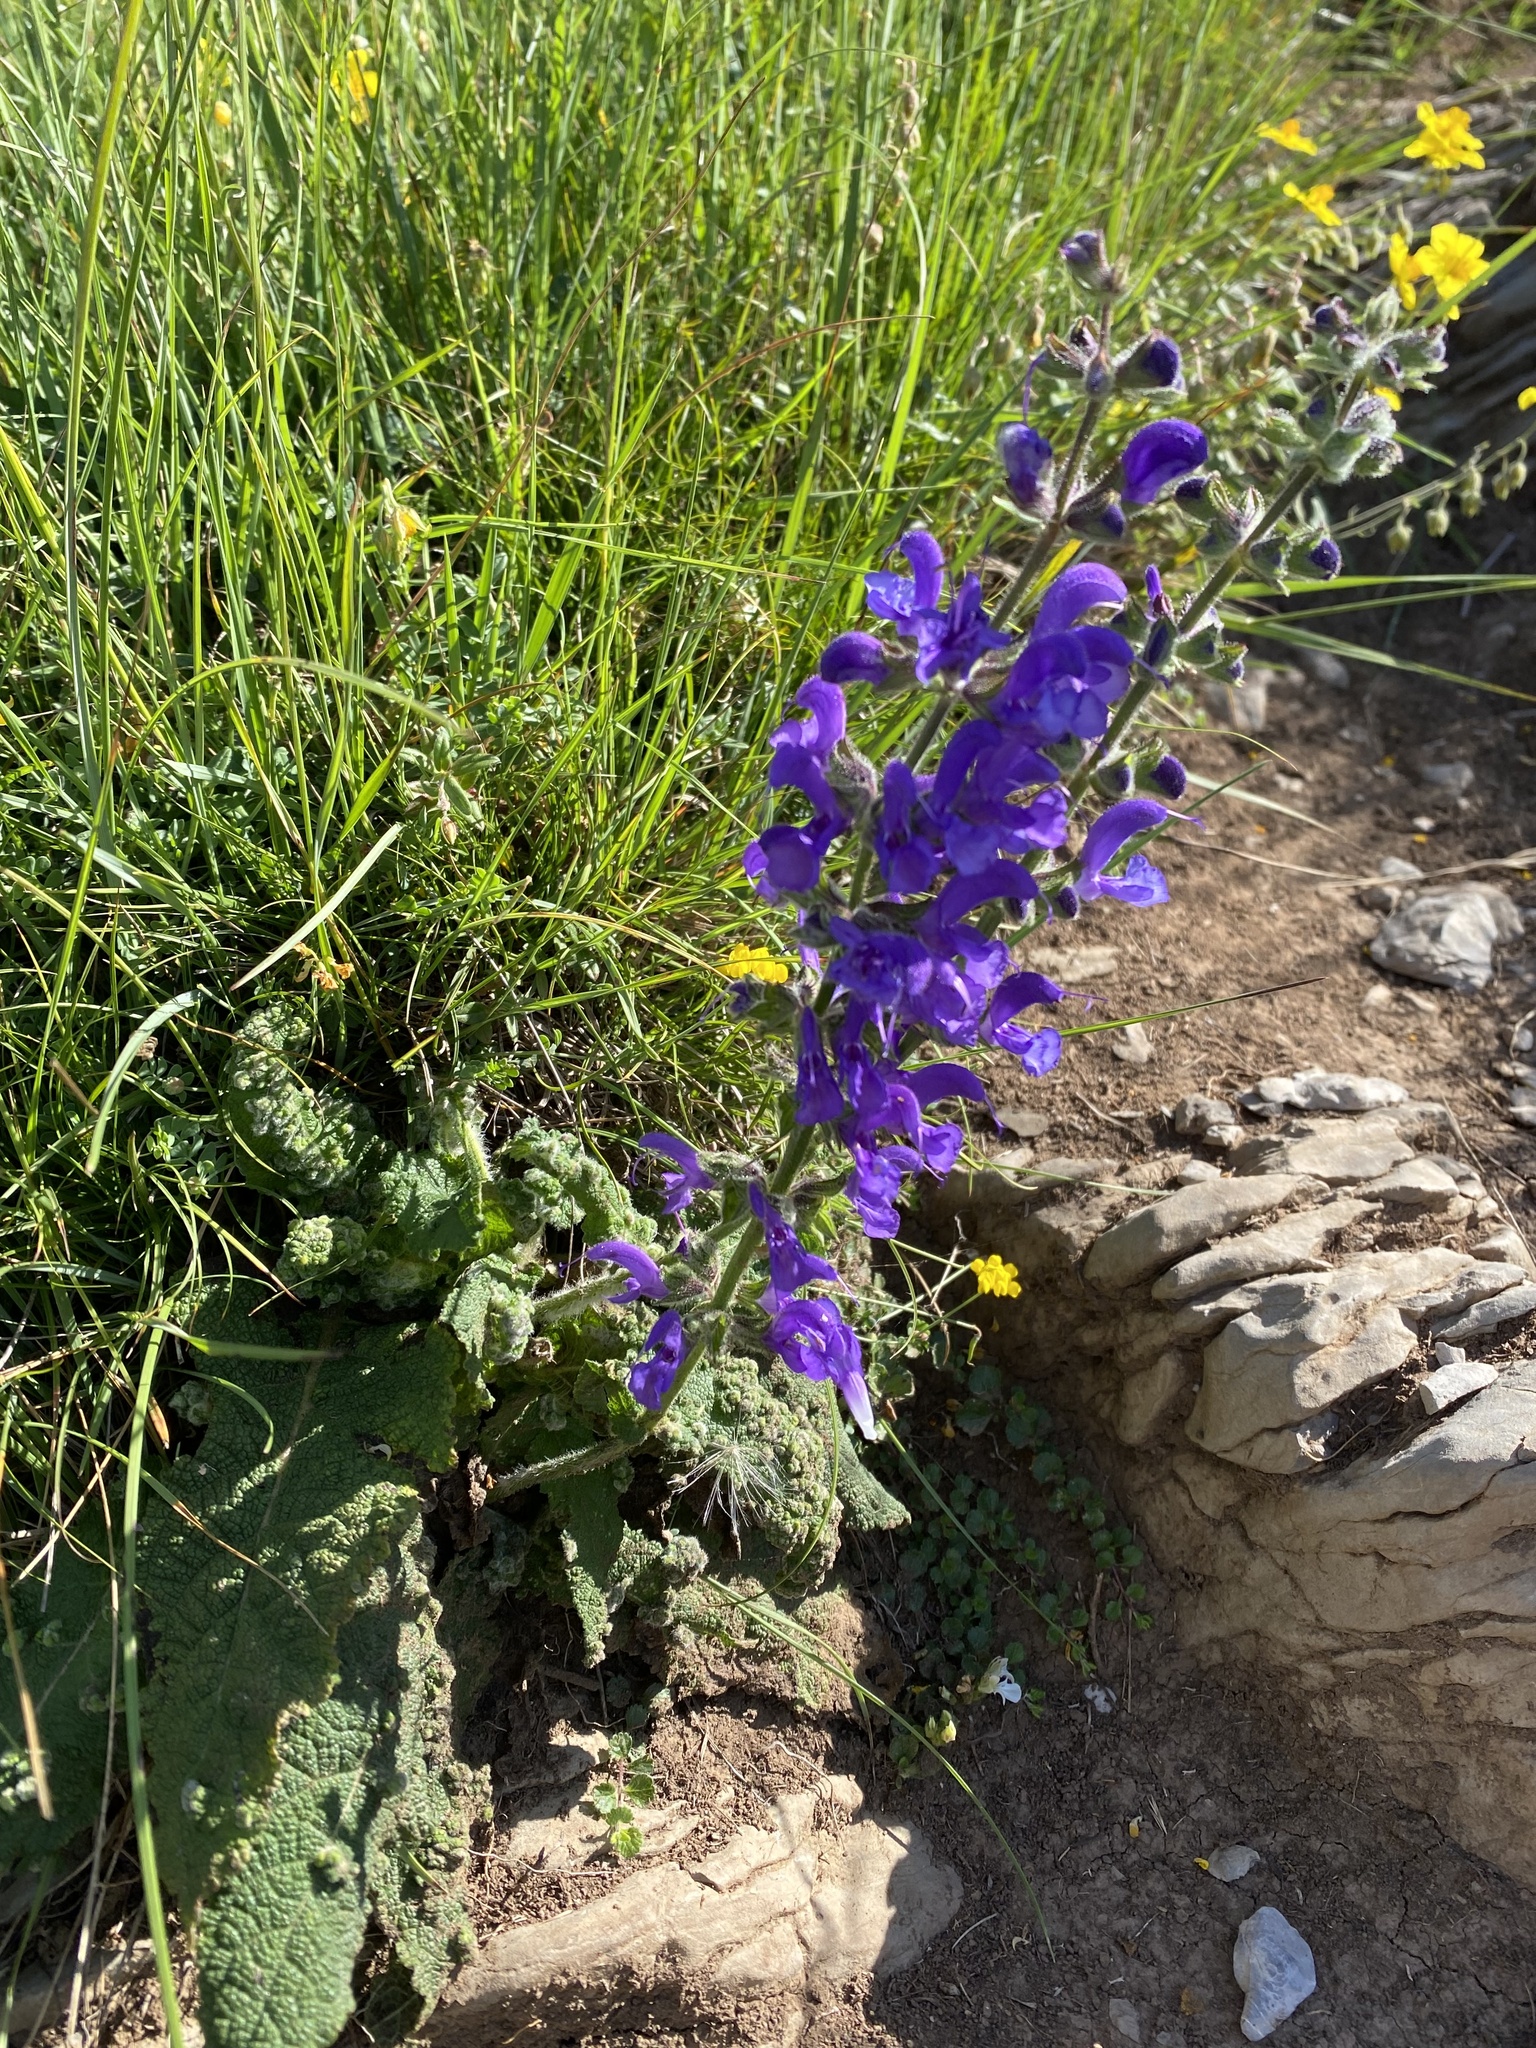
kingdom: Plantae
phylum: Tracheophyta
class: Magnoliopsida
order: Lamiales
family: Lamiaceae
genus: Salvia
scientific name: Salvia pratensis
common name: Meadow sage
